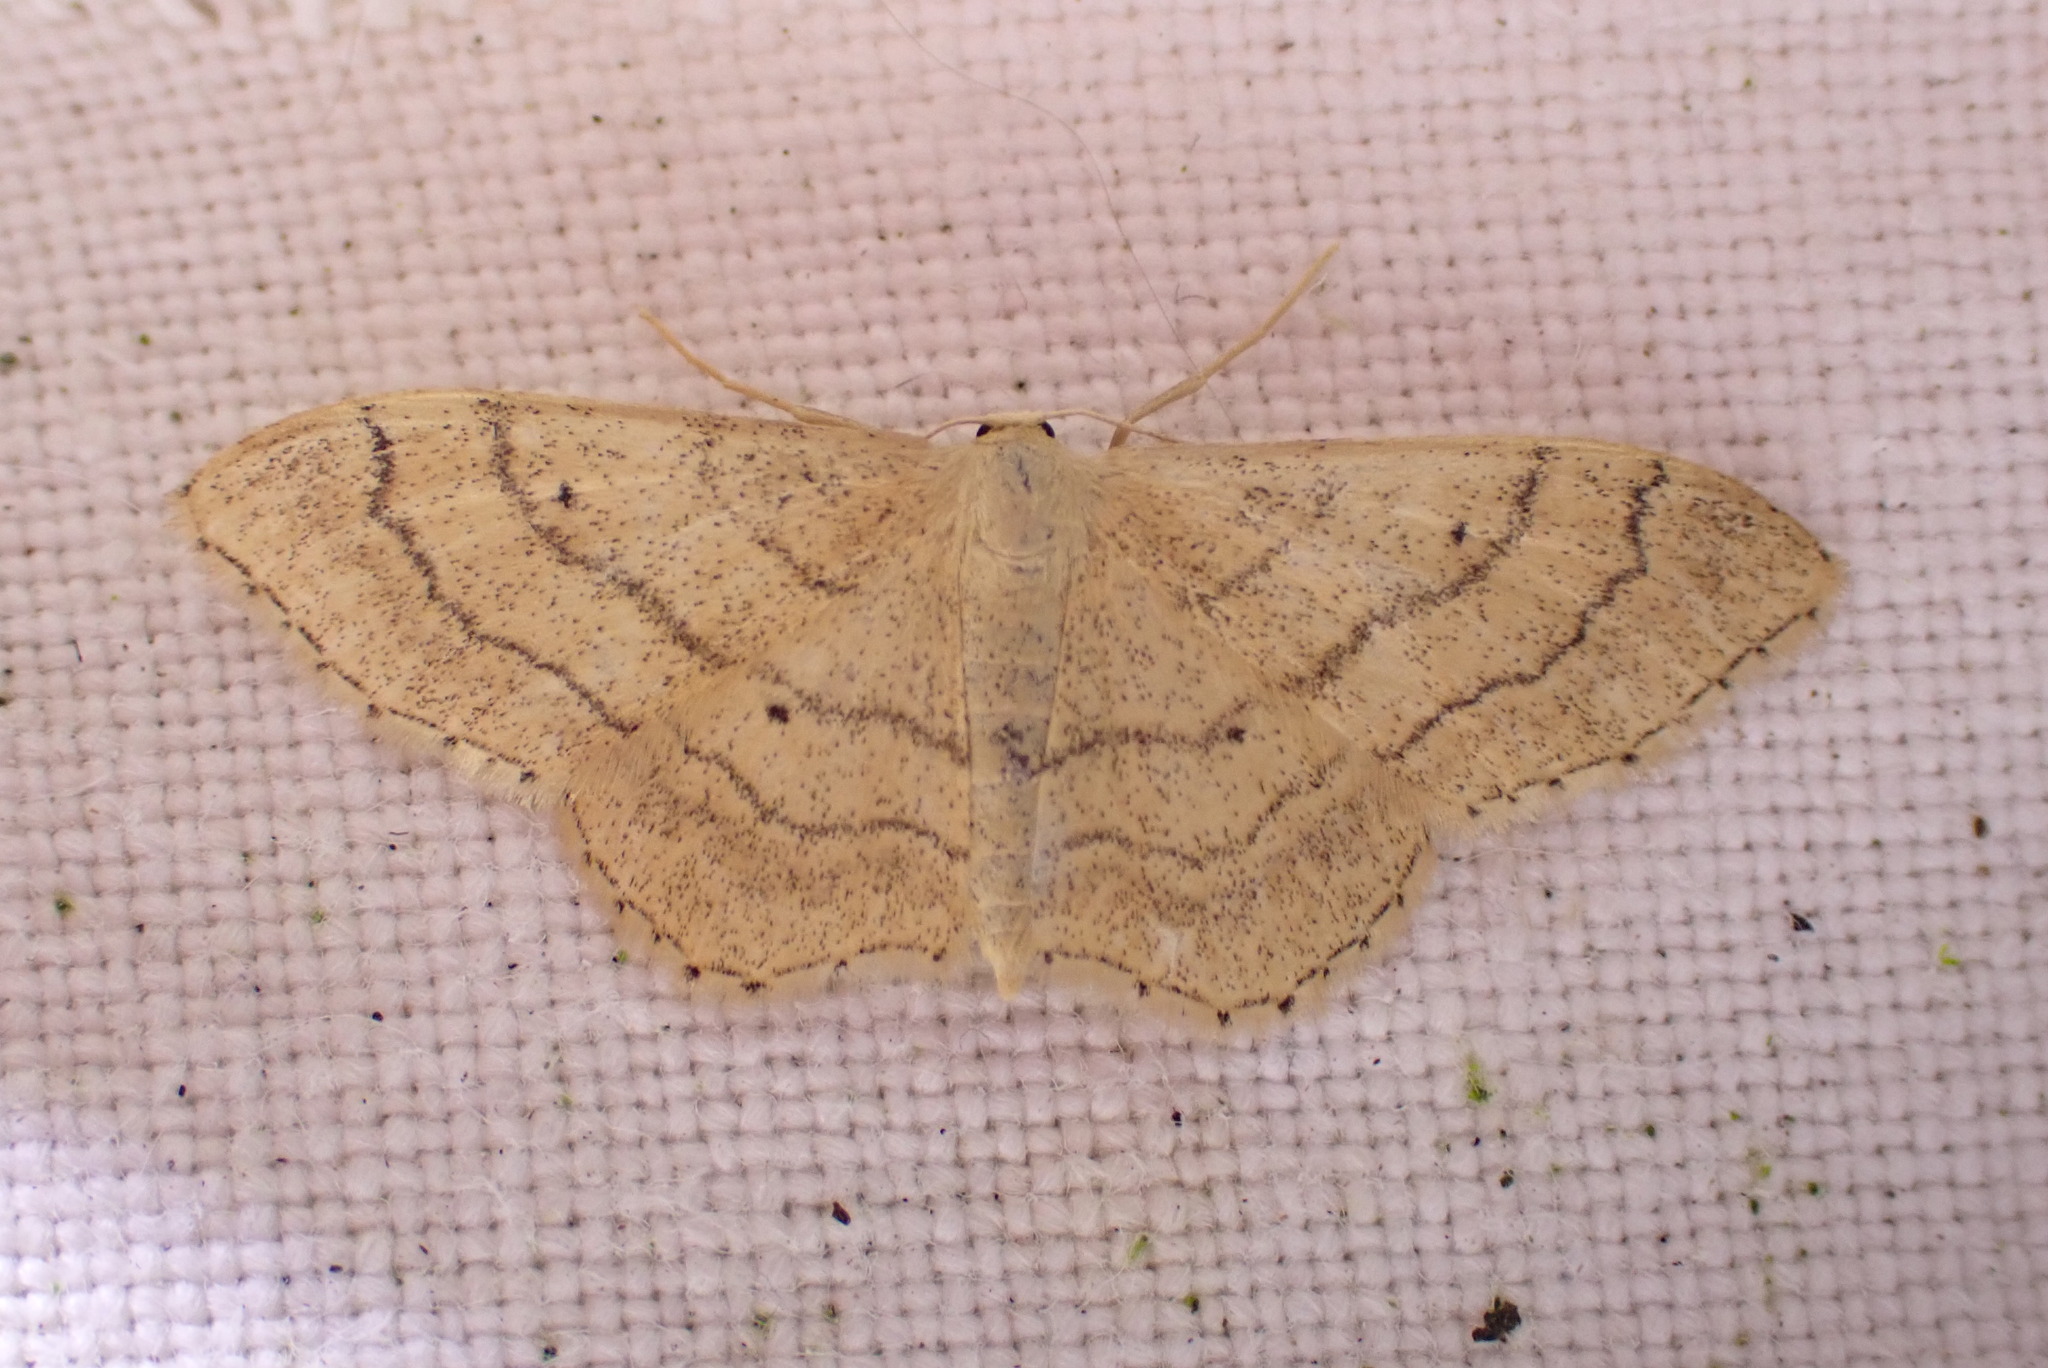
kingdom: Animalia
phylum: Arthropoda
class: Insecta
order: Lepidoptera
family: Geometridae
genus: Idaea
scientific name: Idaea aversata
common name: Riband wave
